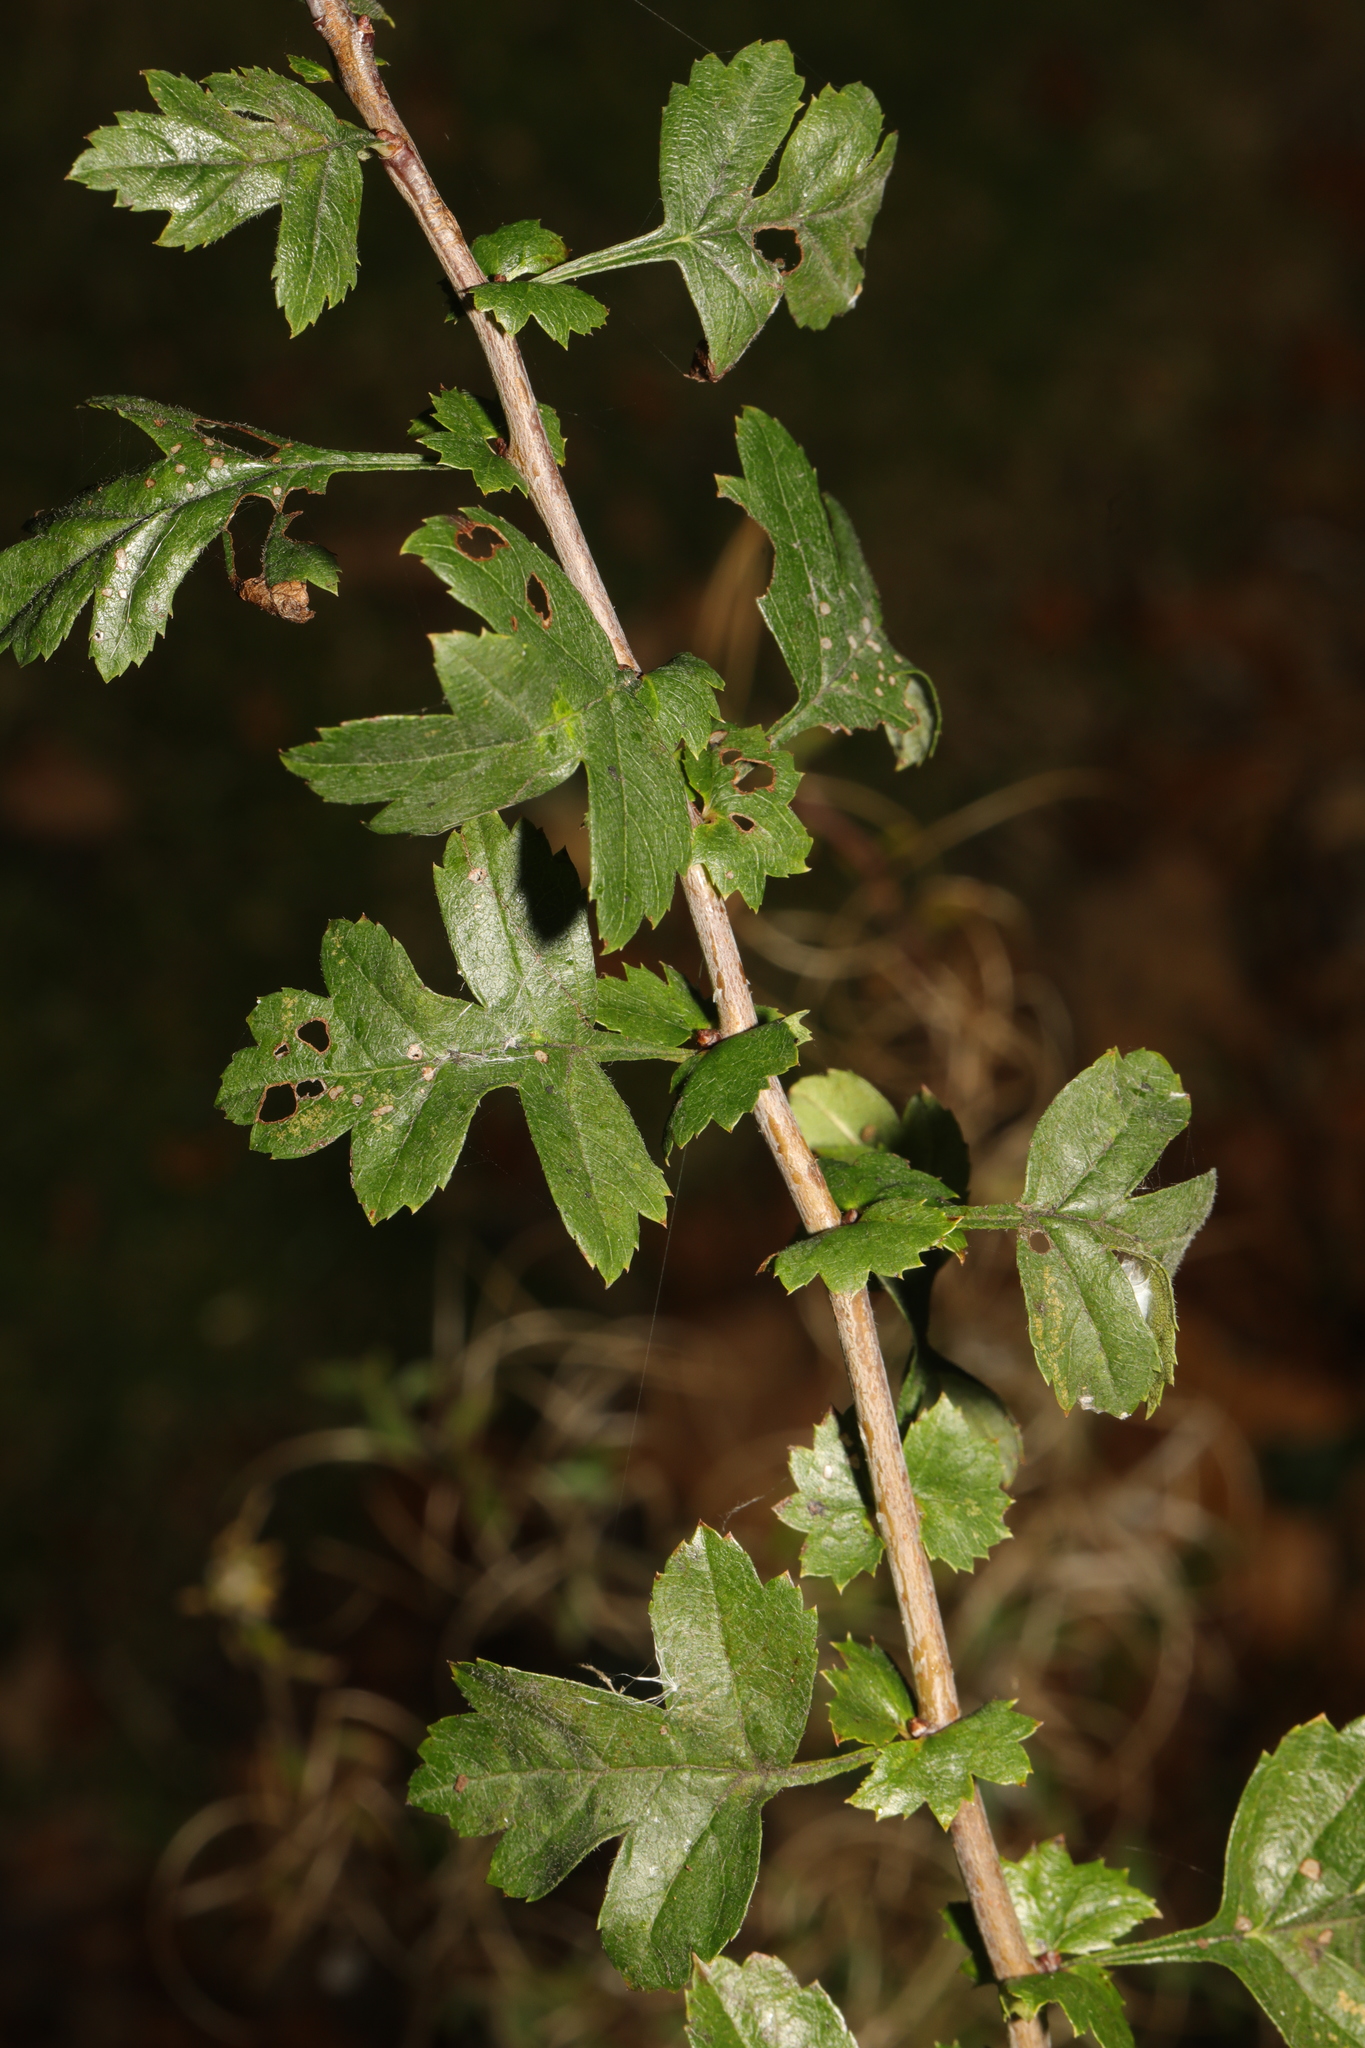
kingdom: Plantae
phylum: Tracheophyta
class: Magnoliopsida
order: Rosales
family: Rosaceae
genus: Crataegus
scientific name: Crataegus monogyna
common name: Hawthorn
